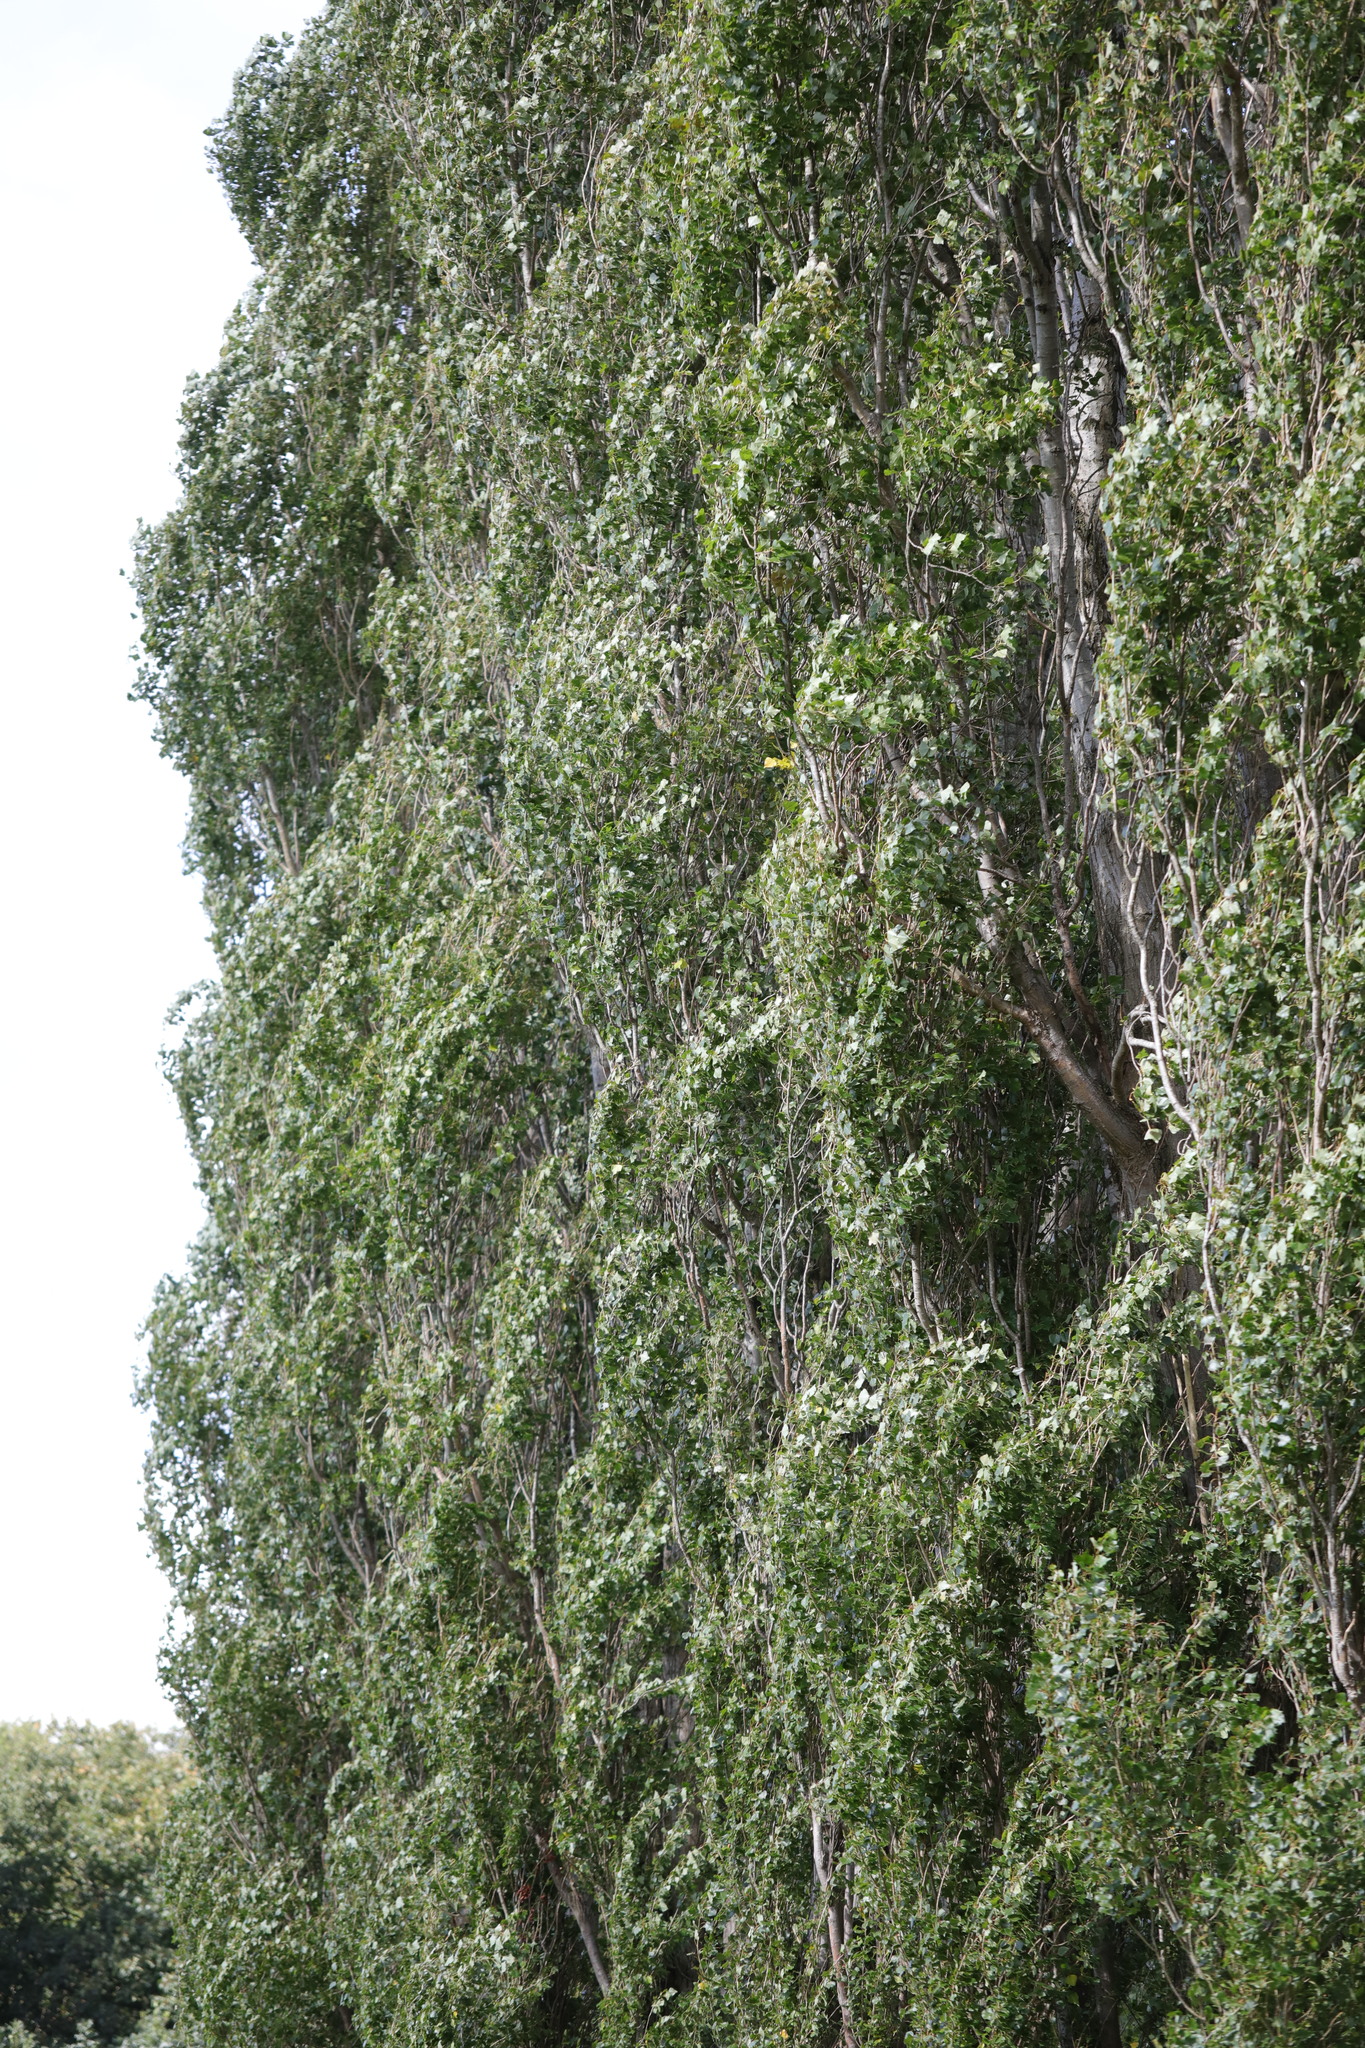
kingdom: Plantae
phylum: Tracheophyta
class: Magnoliopsida
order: Malpighiales
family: Salicaceae
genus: Populus
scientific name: Populus nigra
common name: Black poplar
